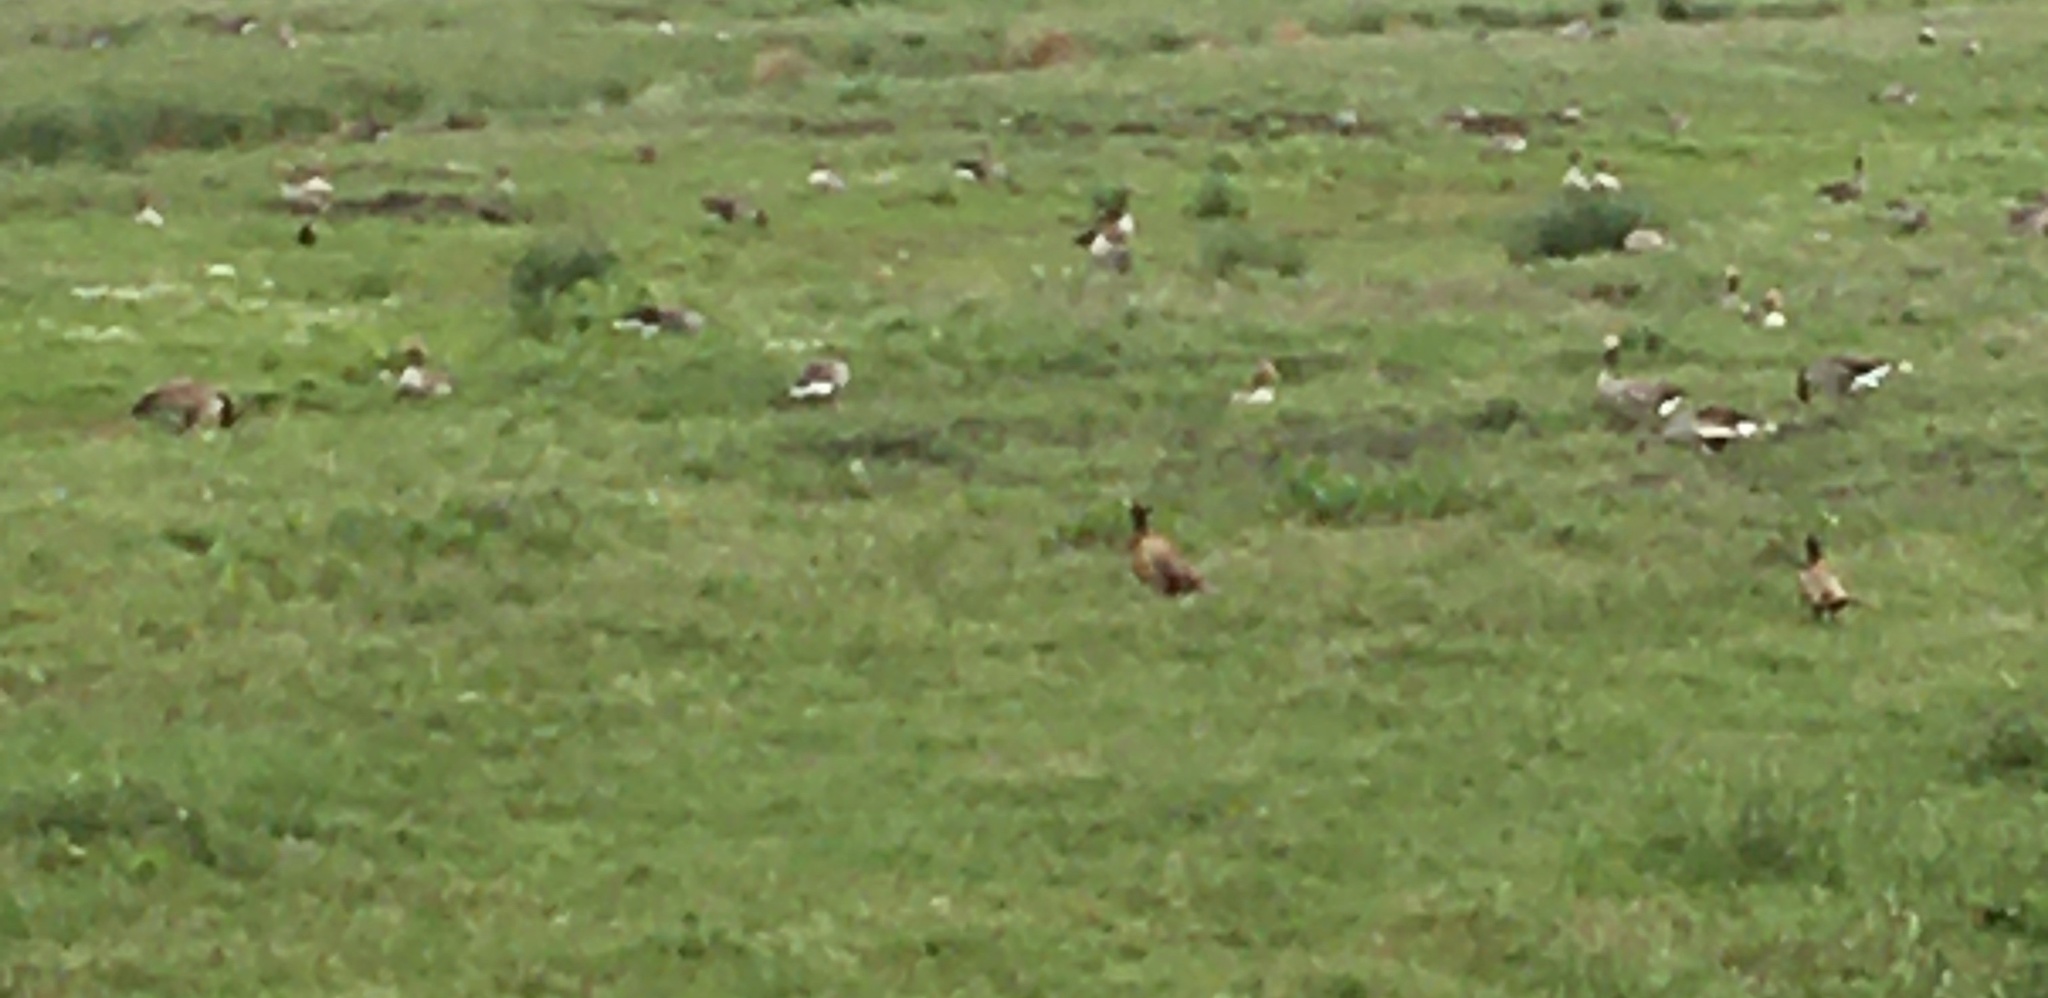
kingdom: Animalia
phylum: Chordata
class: Aves
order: Galliformes
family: Phasianidae
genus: Phasianus
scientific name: Phasianus colchicus
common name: Common pheasant
